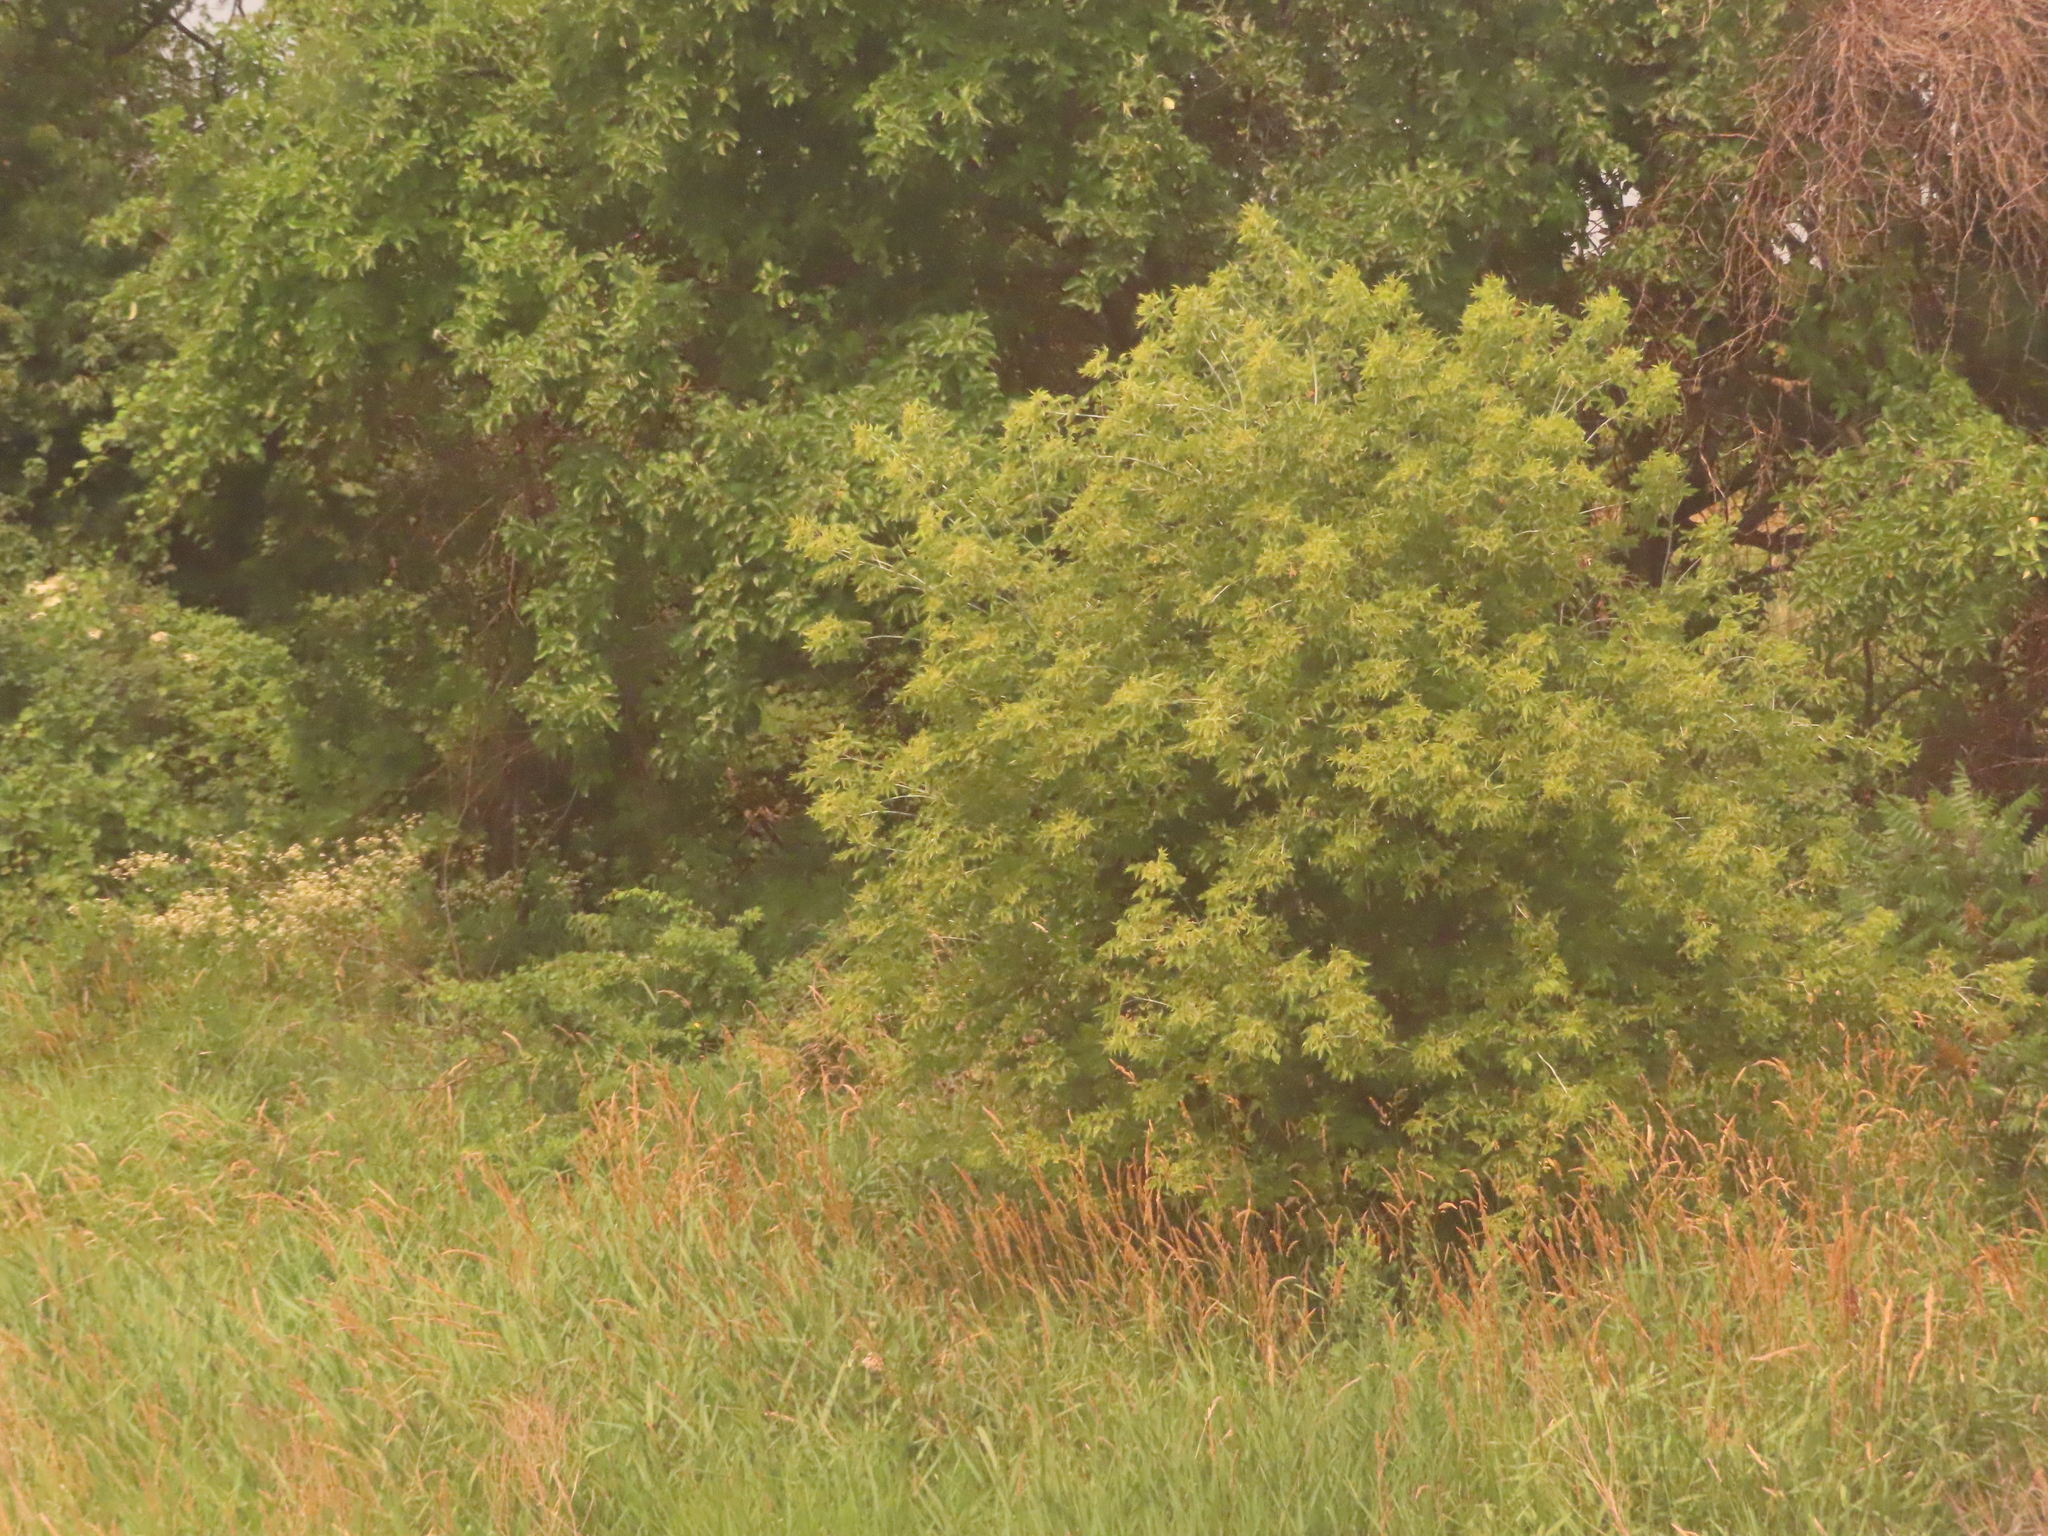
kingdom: Plantae
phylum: Tracheophyta
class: Magnoliopsida
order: Sapindales
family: Sapindaceae
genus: Acer
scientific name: Acer negundo
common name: Ashleaf maple
